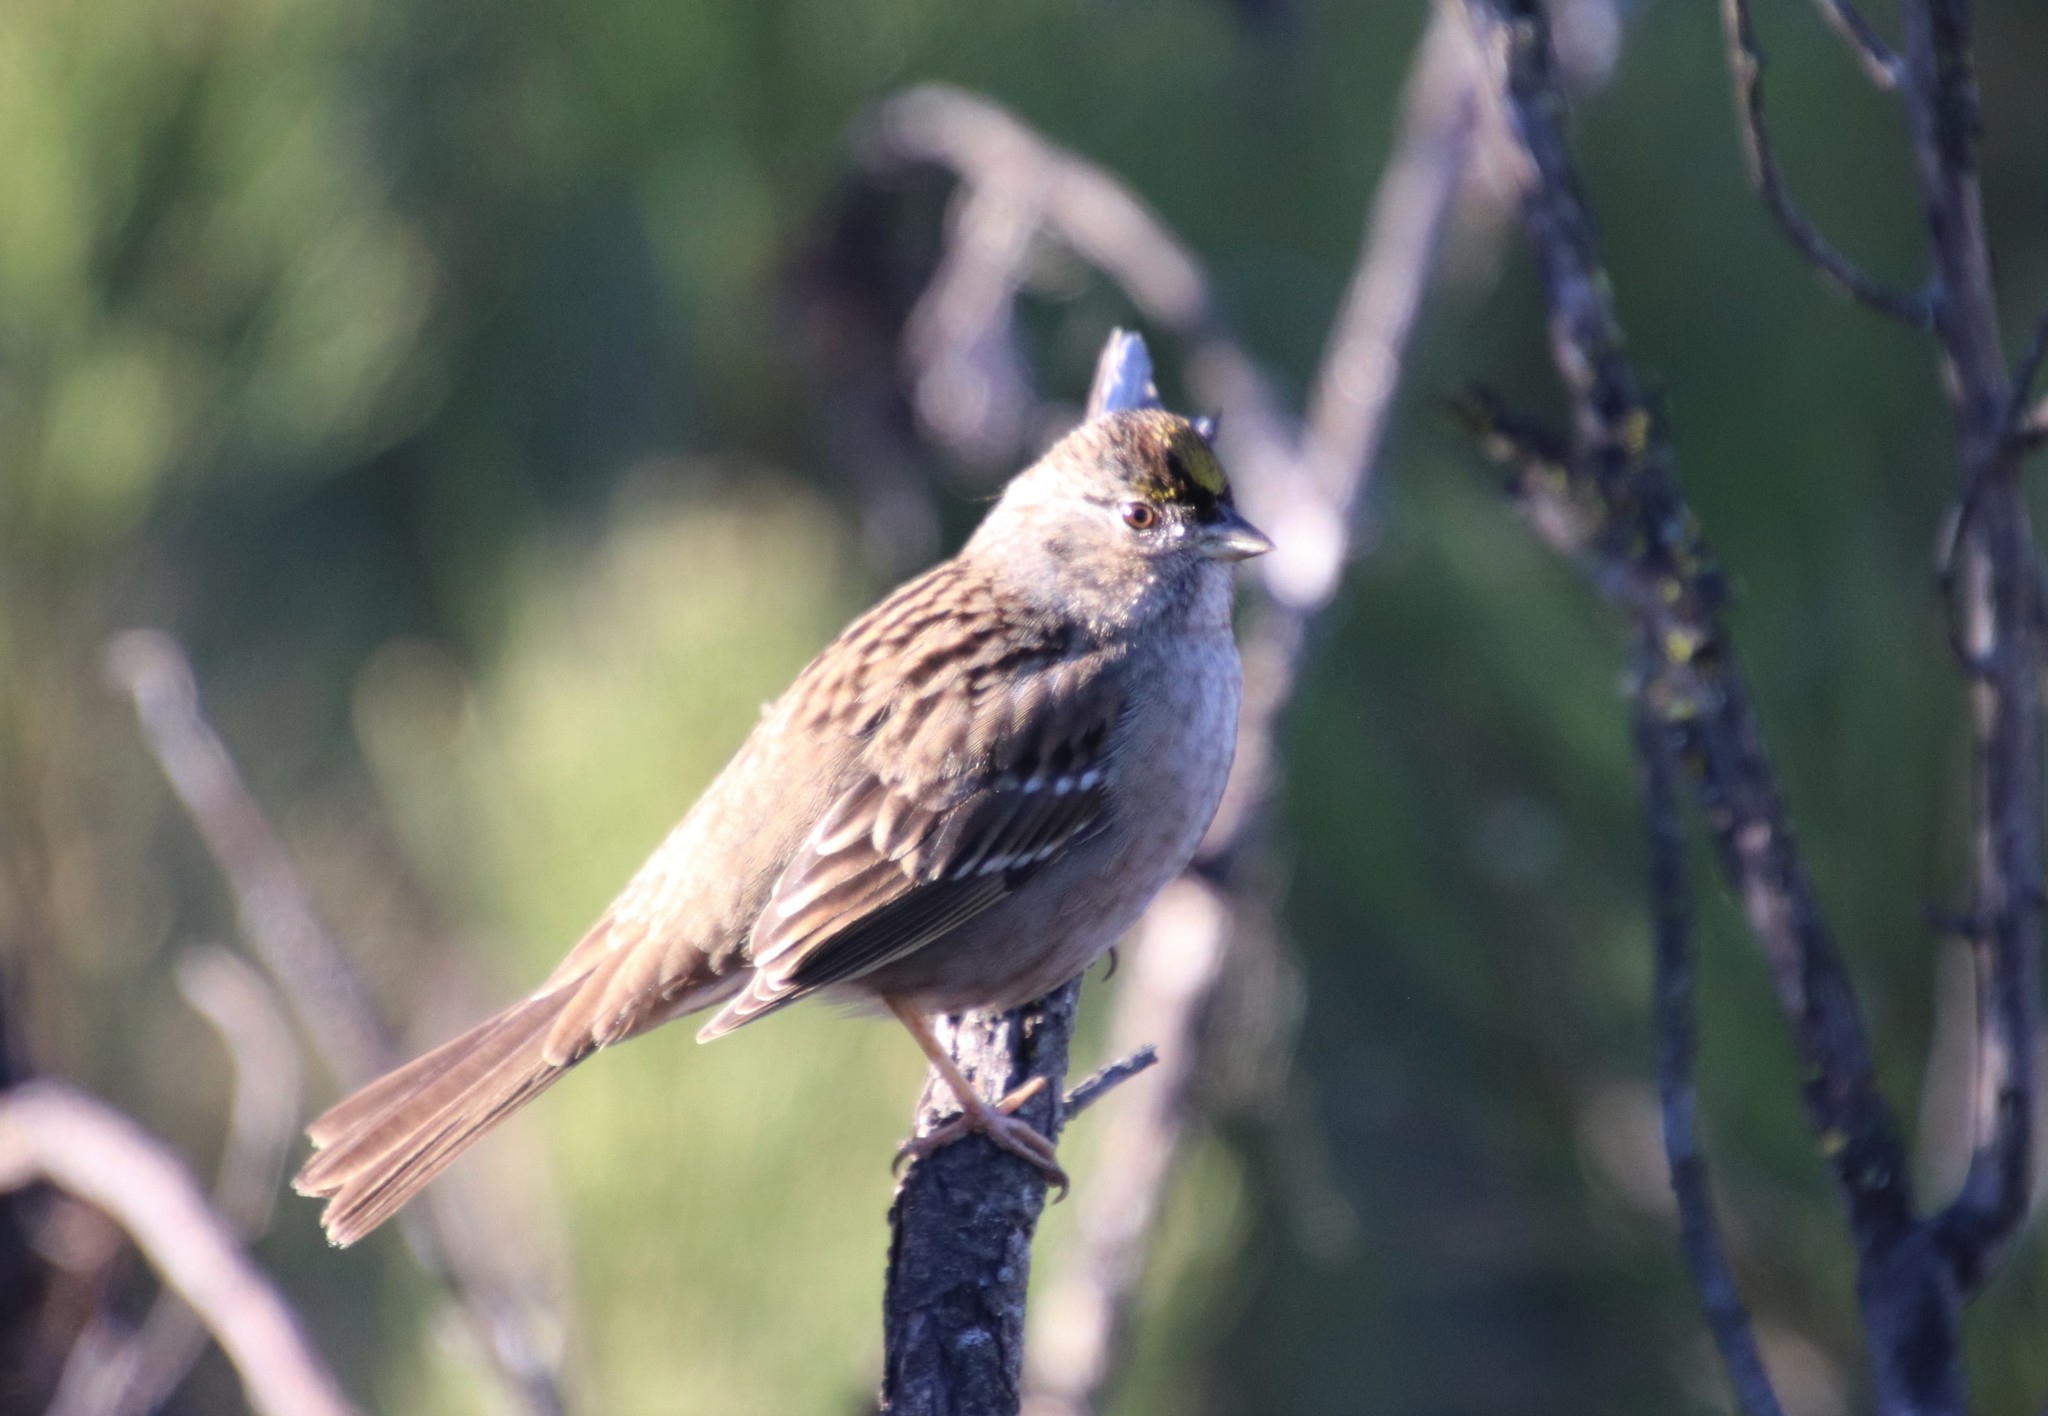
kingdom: Animalia
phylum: Chordata
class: Aves
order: Passeriformes
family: Passerellidae
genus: Zonotrichia
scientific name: Zonotrichia atricapilla
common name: Golden-crowned sparrow
